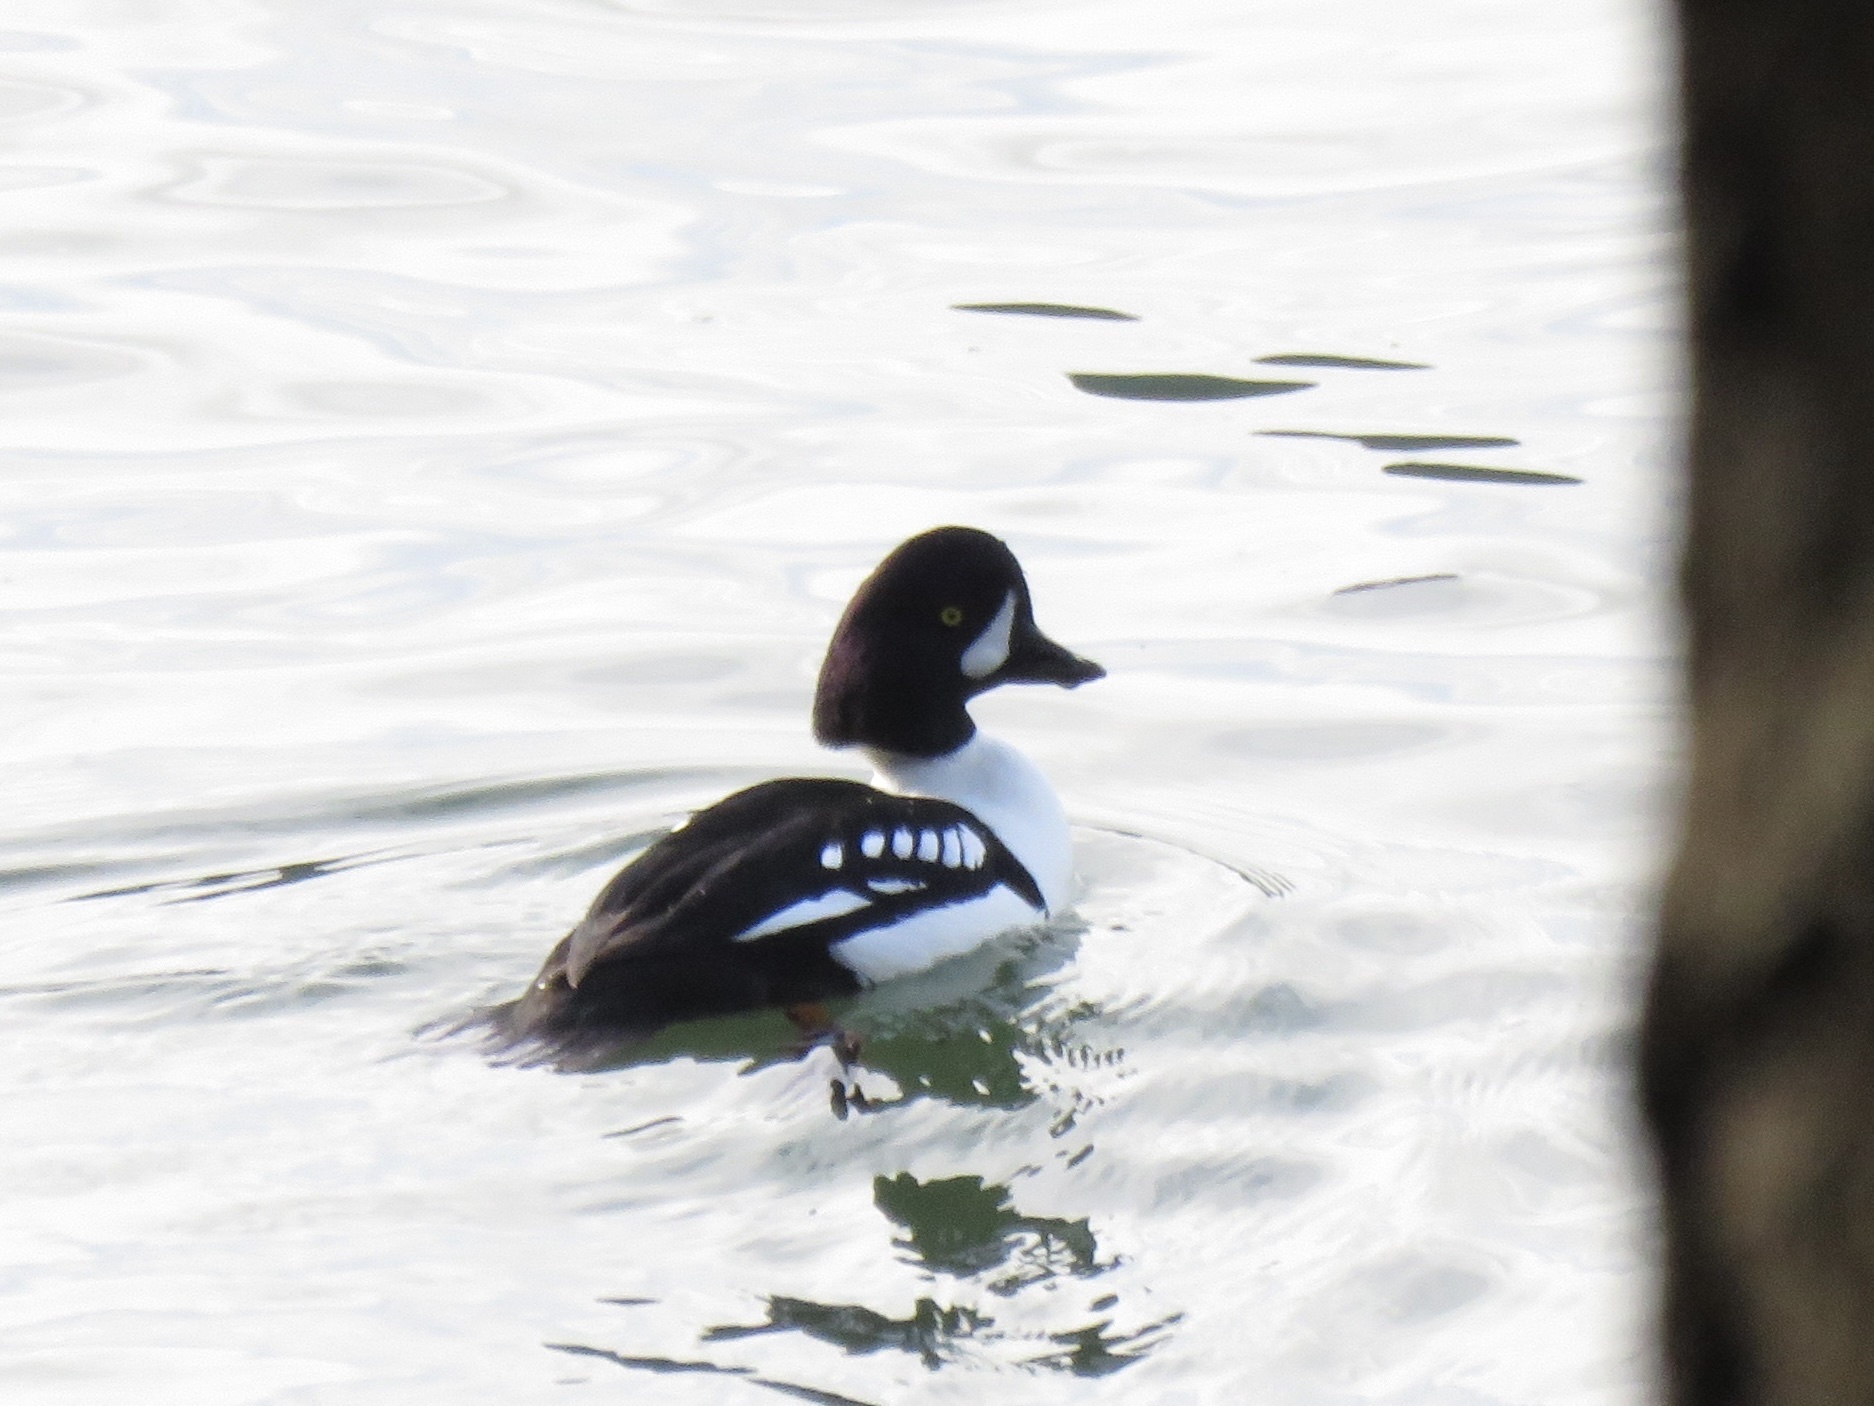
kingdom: Animalia
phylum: Chordata
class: Aves
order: Anseriformes
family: Anatidae
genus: Bucephala
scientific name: Bucephala islandica
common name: Barrow's goldeneye
